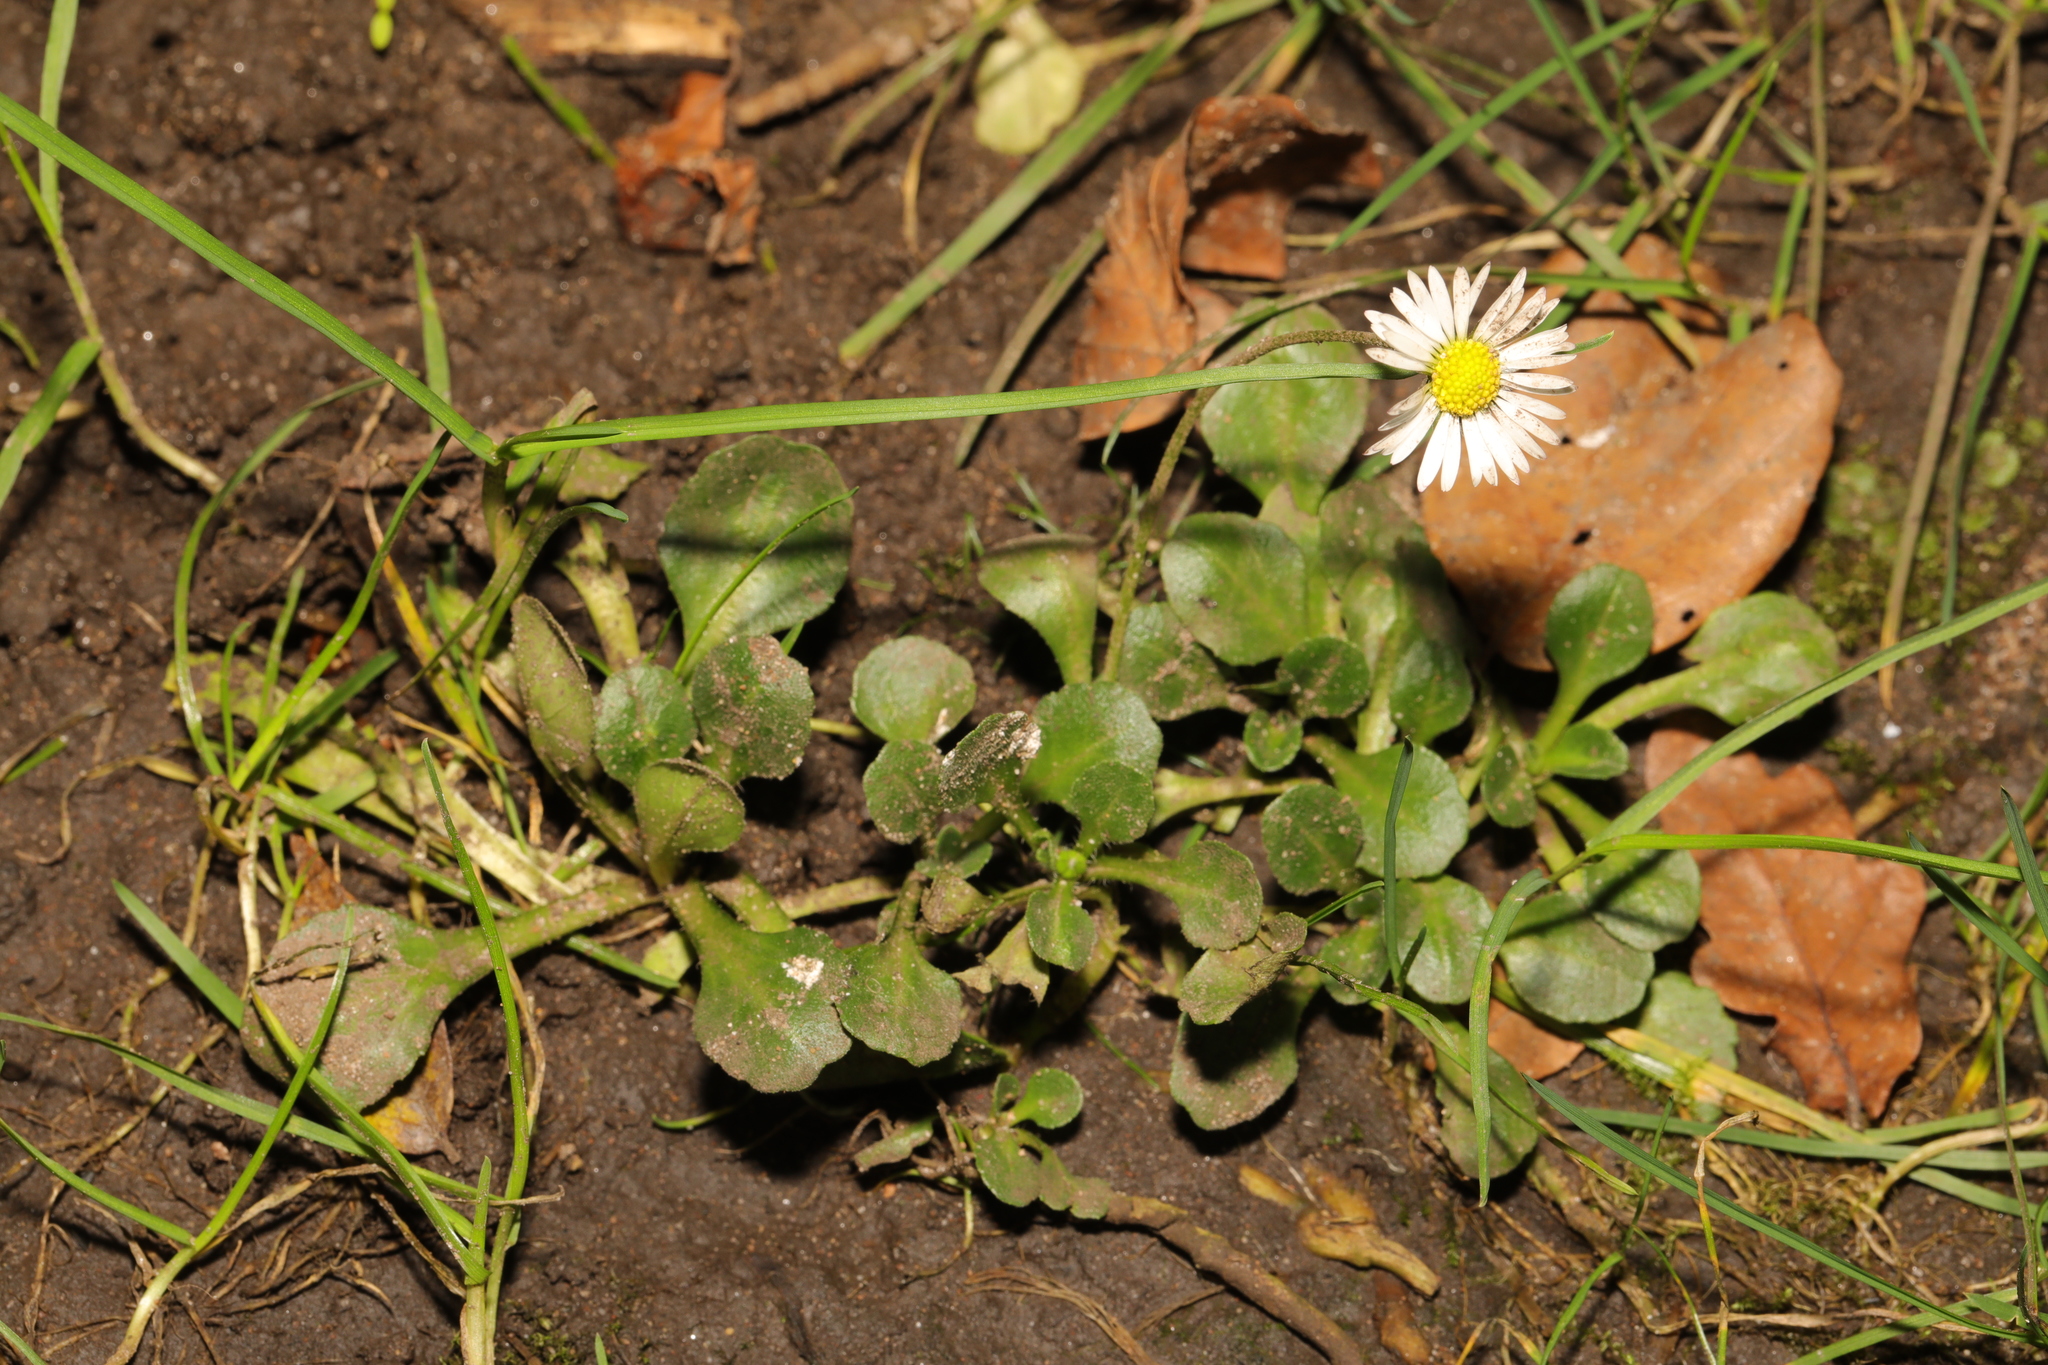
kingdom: Plantae
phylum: Tracheophyta
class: Magnoliopsida
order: Asterales
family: Asteraceae
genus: Bellis
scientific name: Bellis perennis
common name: Lawndaisy
